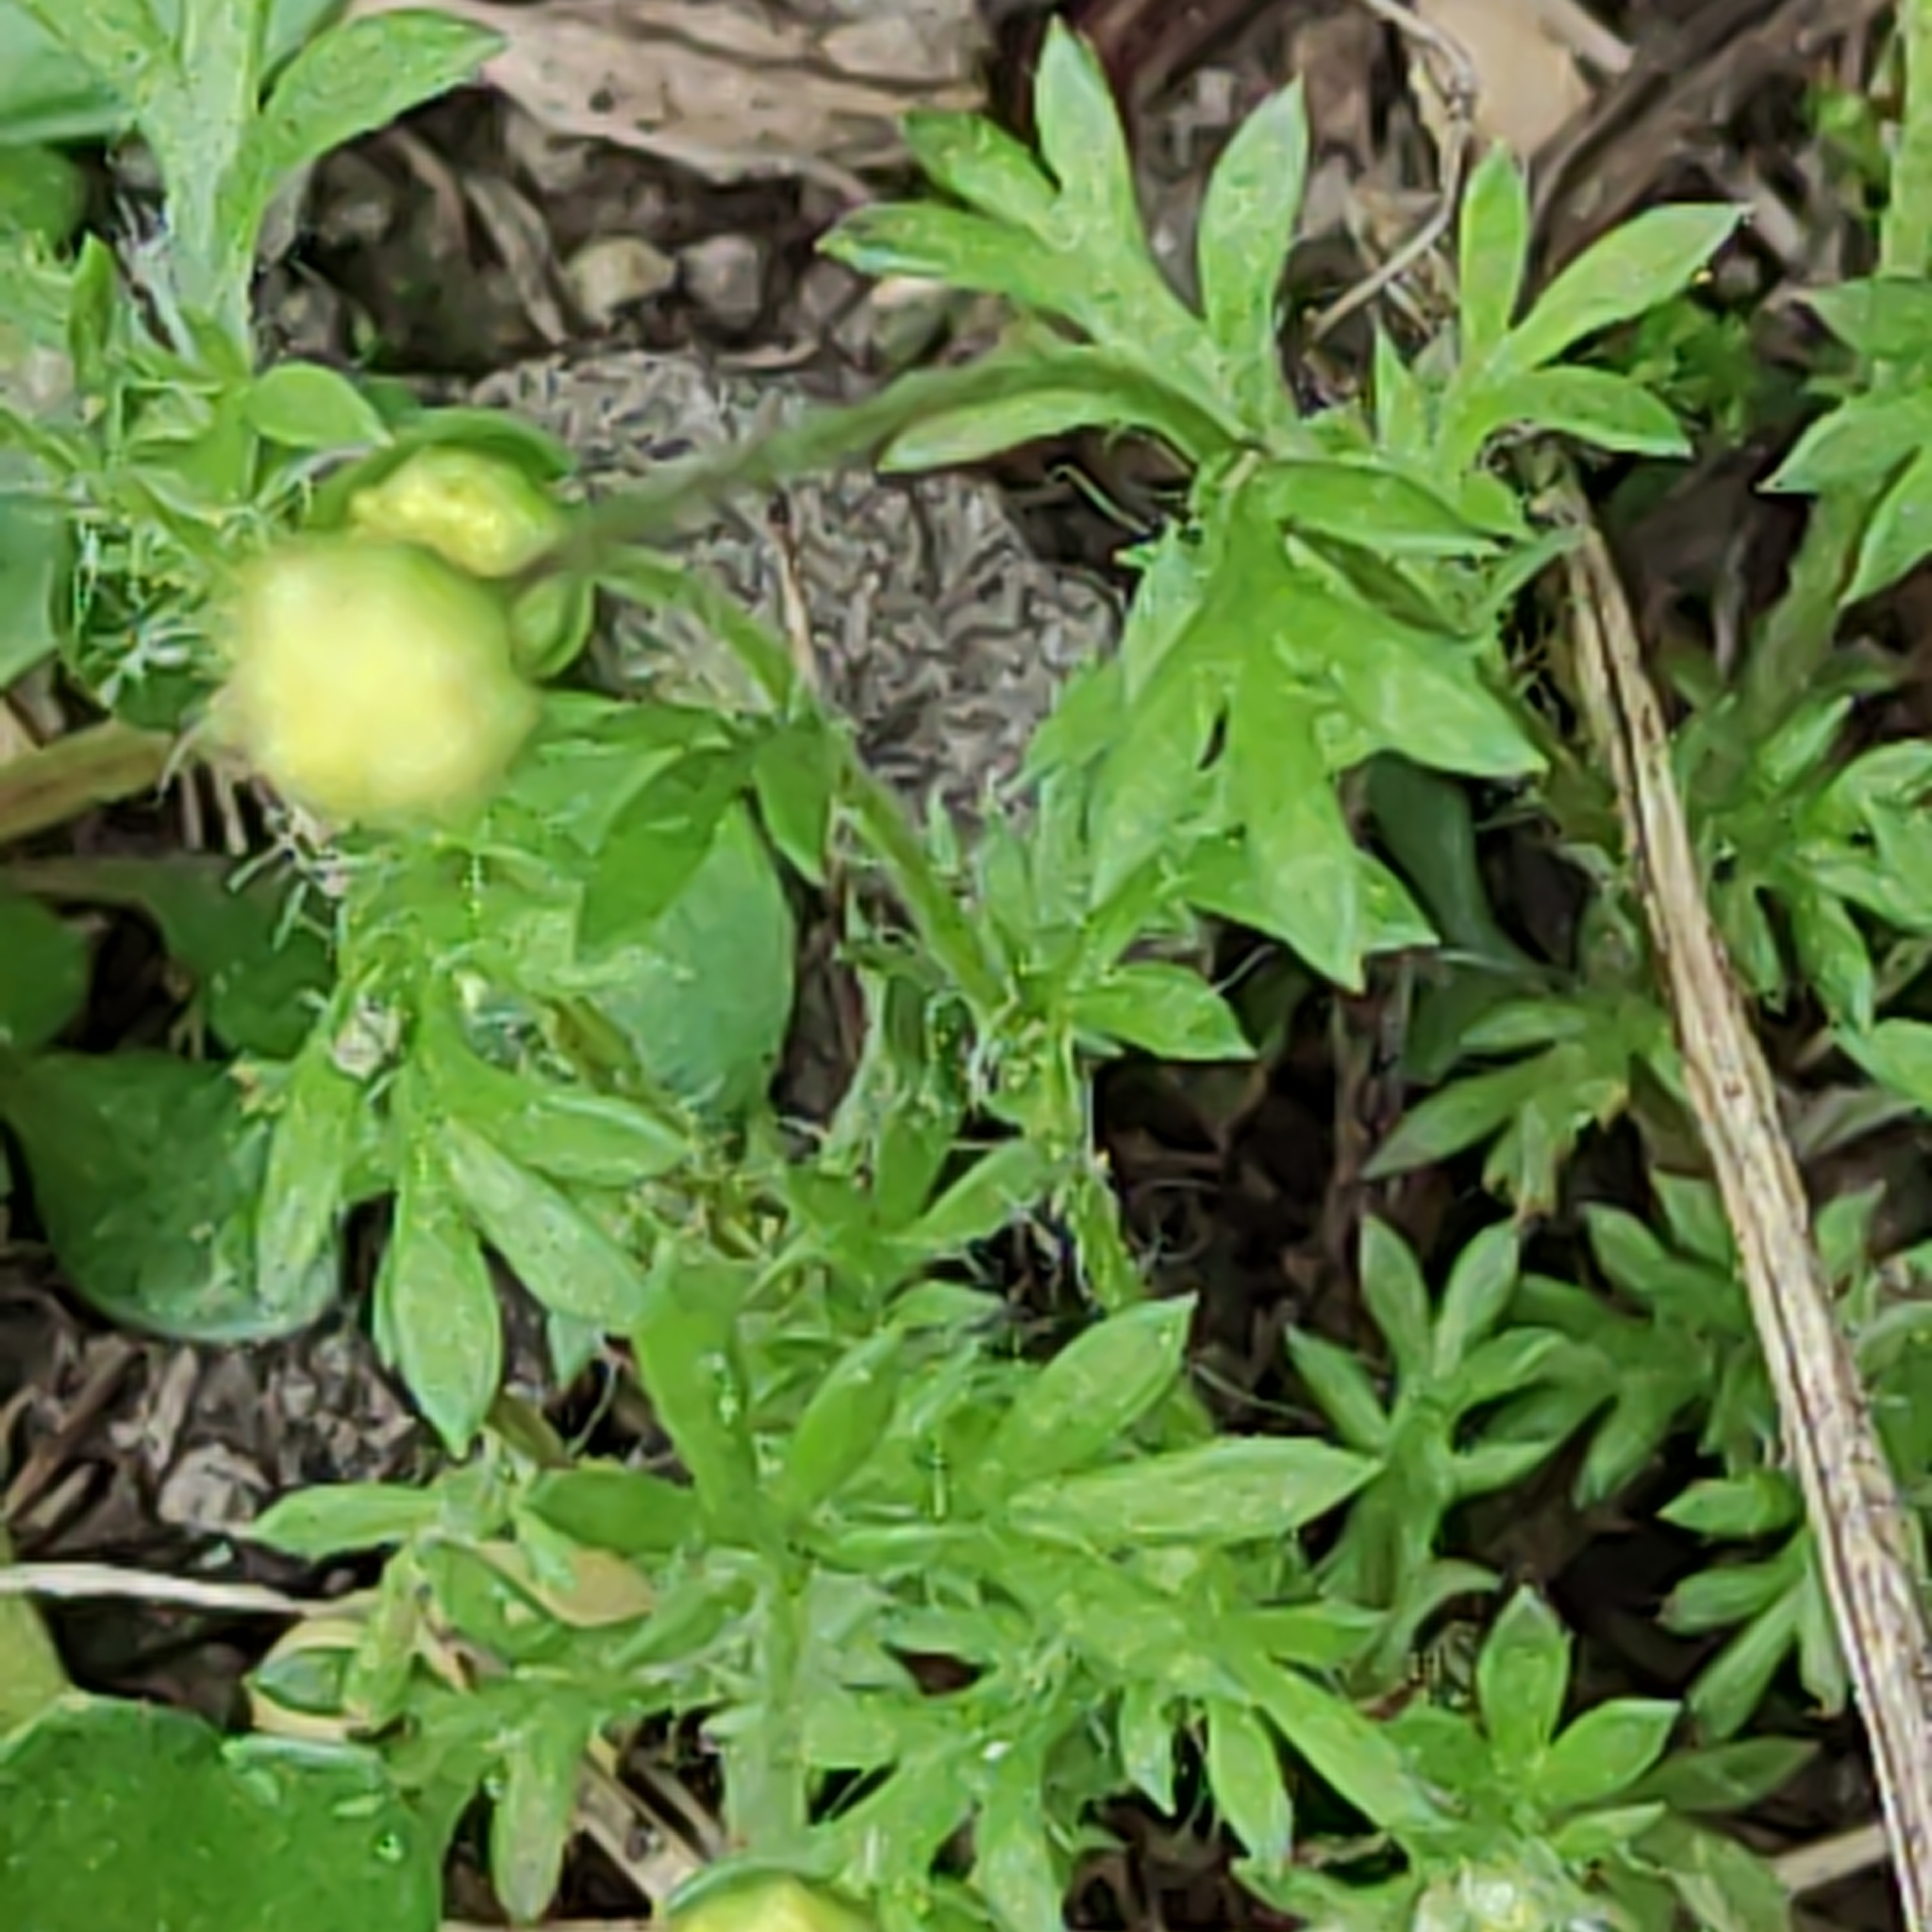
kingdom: Plantae
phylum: Tracheophyta
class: Magnoliopsida
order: Asterales
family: Asteraceae
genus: Cotula
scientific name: Cotula australis
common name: Australian waterbuttons
